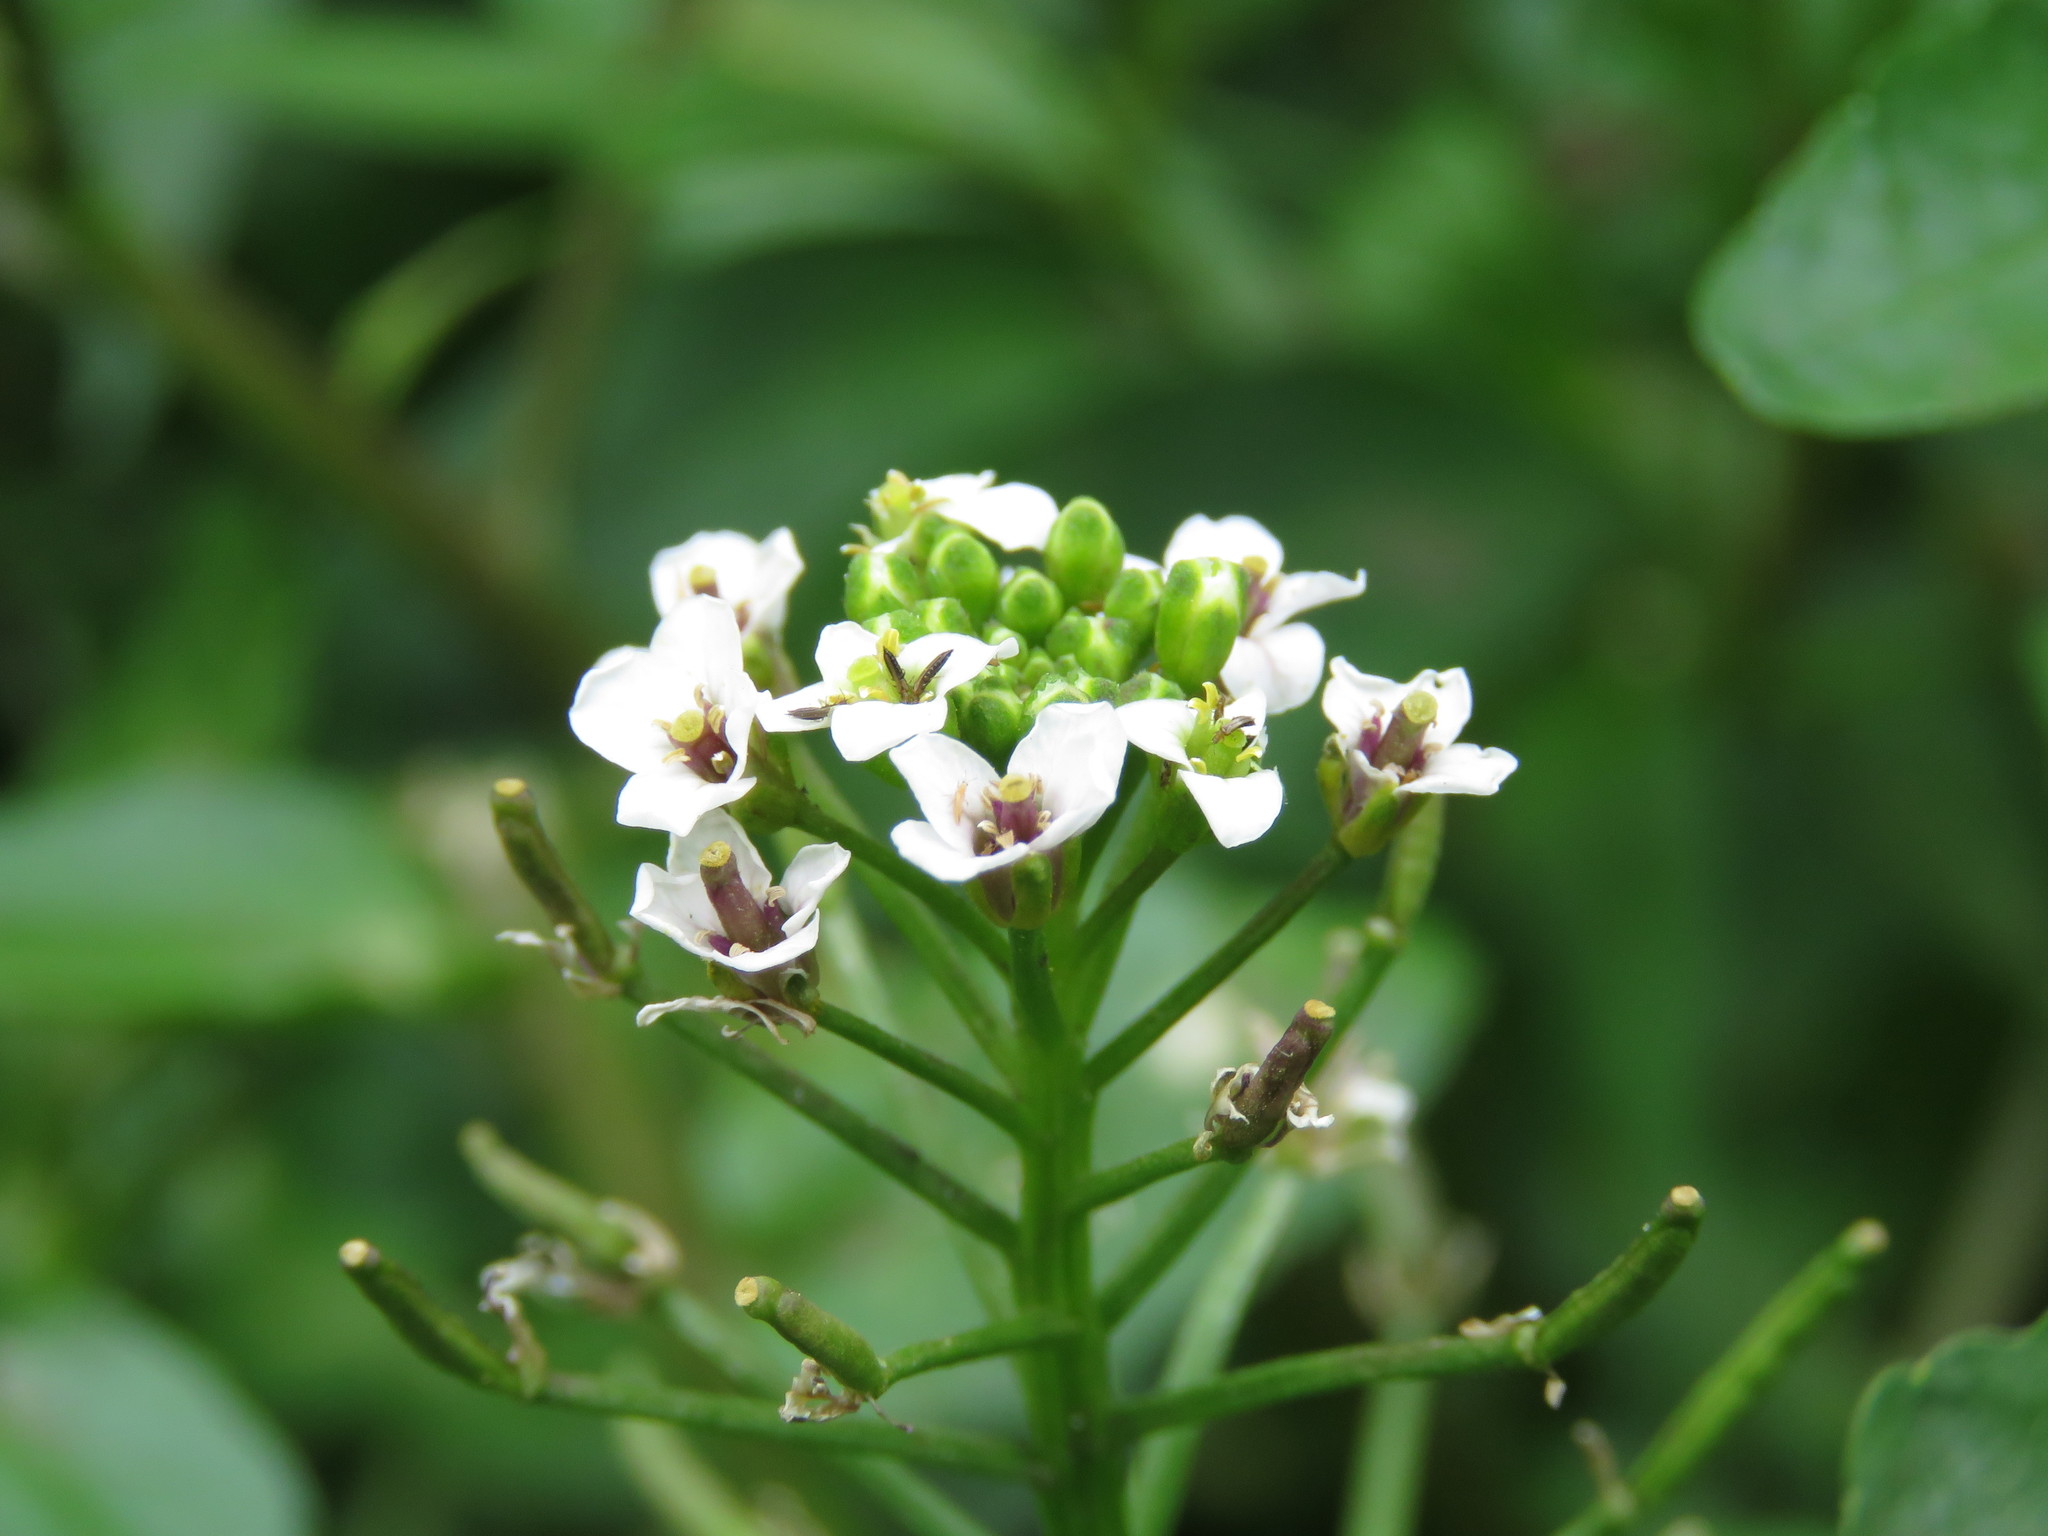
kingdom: Plantae
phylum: Tracheophyta
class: Magnoliopsida
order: Brassicales
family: Brassicaceae
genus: Nasturtium
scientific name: Nasturtium officinale
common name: Watercress
